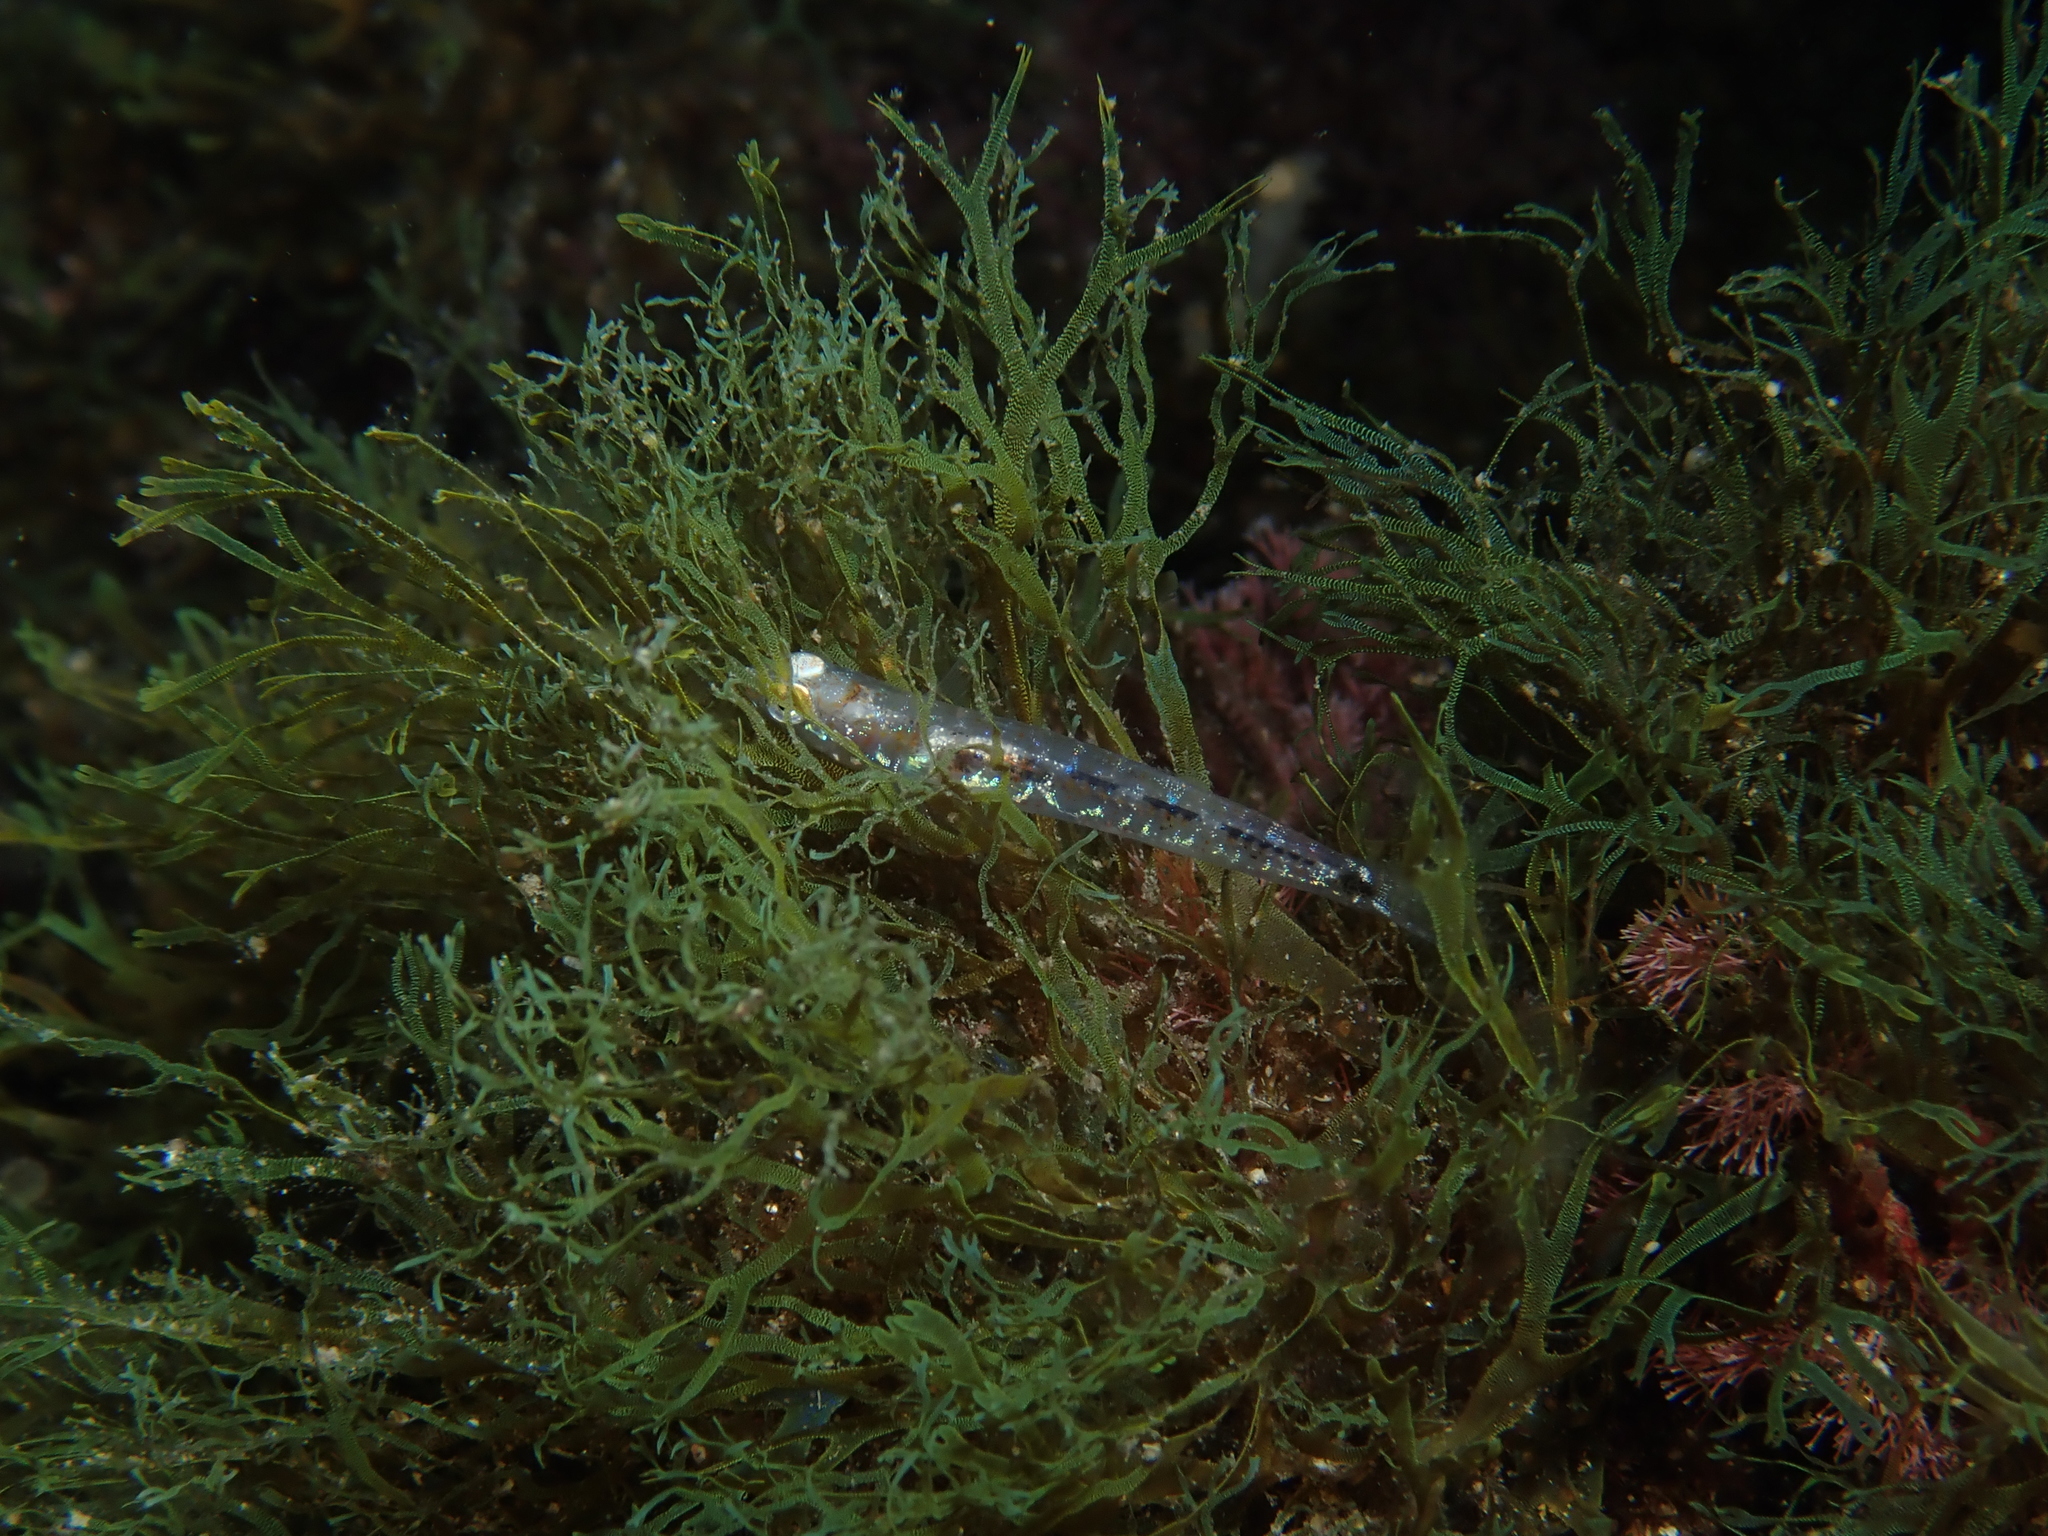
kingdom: Animalia
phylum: Chordata
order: Perciformes
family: Gobiidae
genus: Pseudaphya
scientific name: Pseudaphya ferreri
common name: Ferrer's goby
